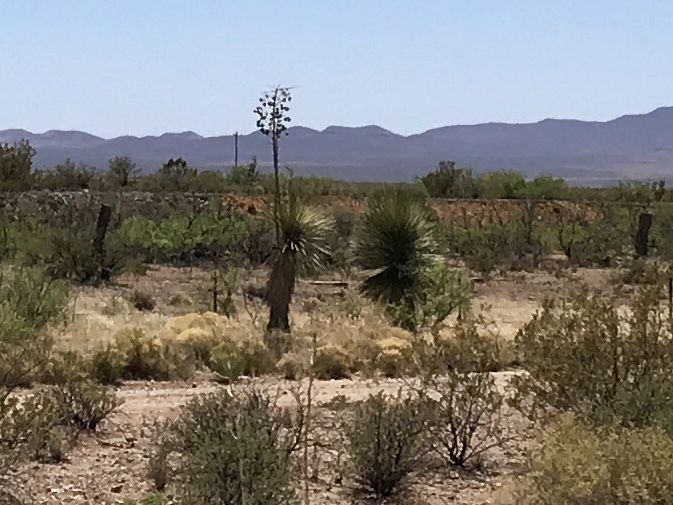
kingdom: Plantae
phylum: Tracheophyta
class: Liliopsida
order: Asparagales
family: Asparagaceae
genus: Yucca
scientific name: Yucca elata
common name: Palmella
